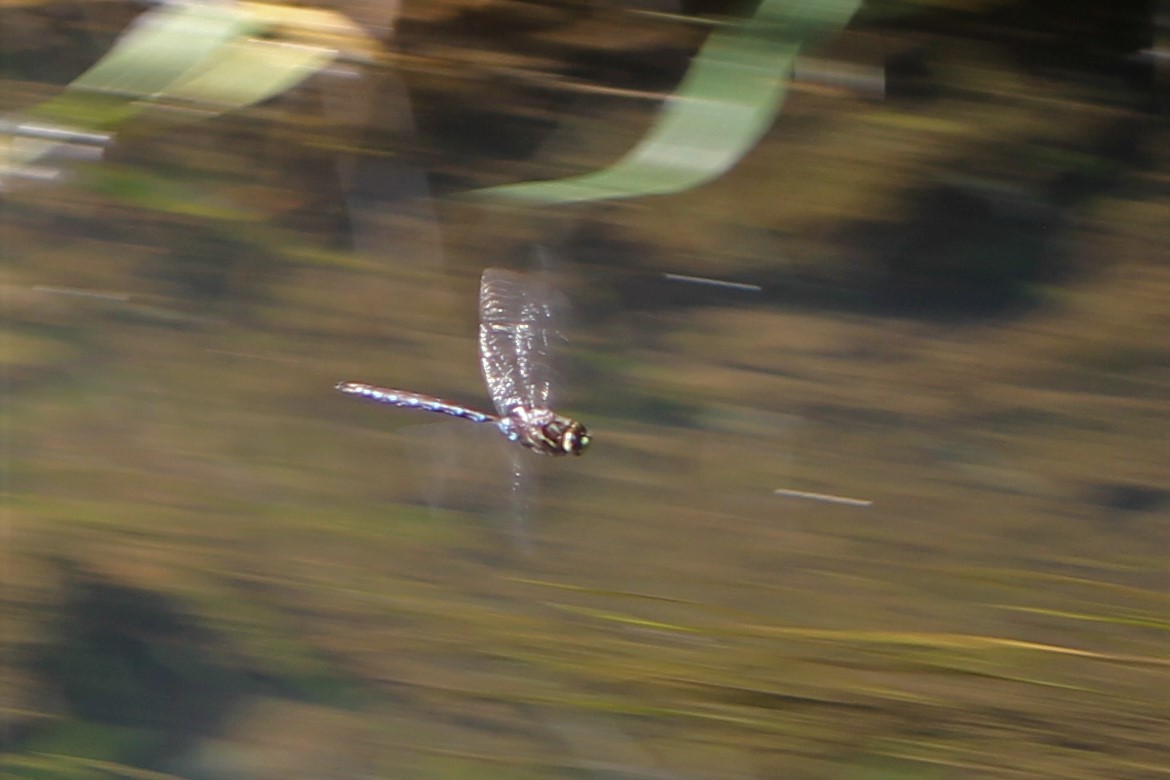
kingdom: Animalia
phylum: Arthropoda
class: Insecta
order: Odonata
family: Aeshnidae
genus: Basiaeschna
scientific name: Basiaeschna janata
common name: Springtime darner
